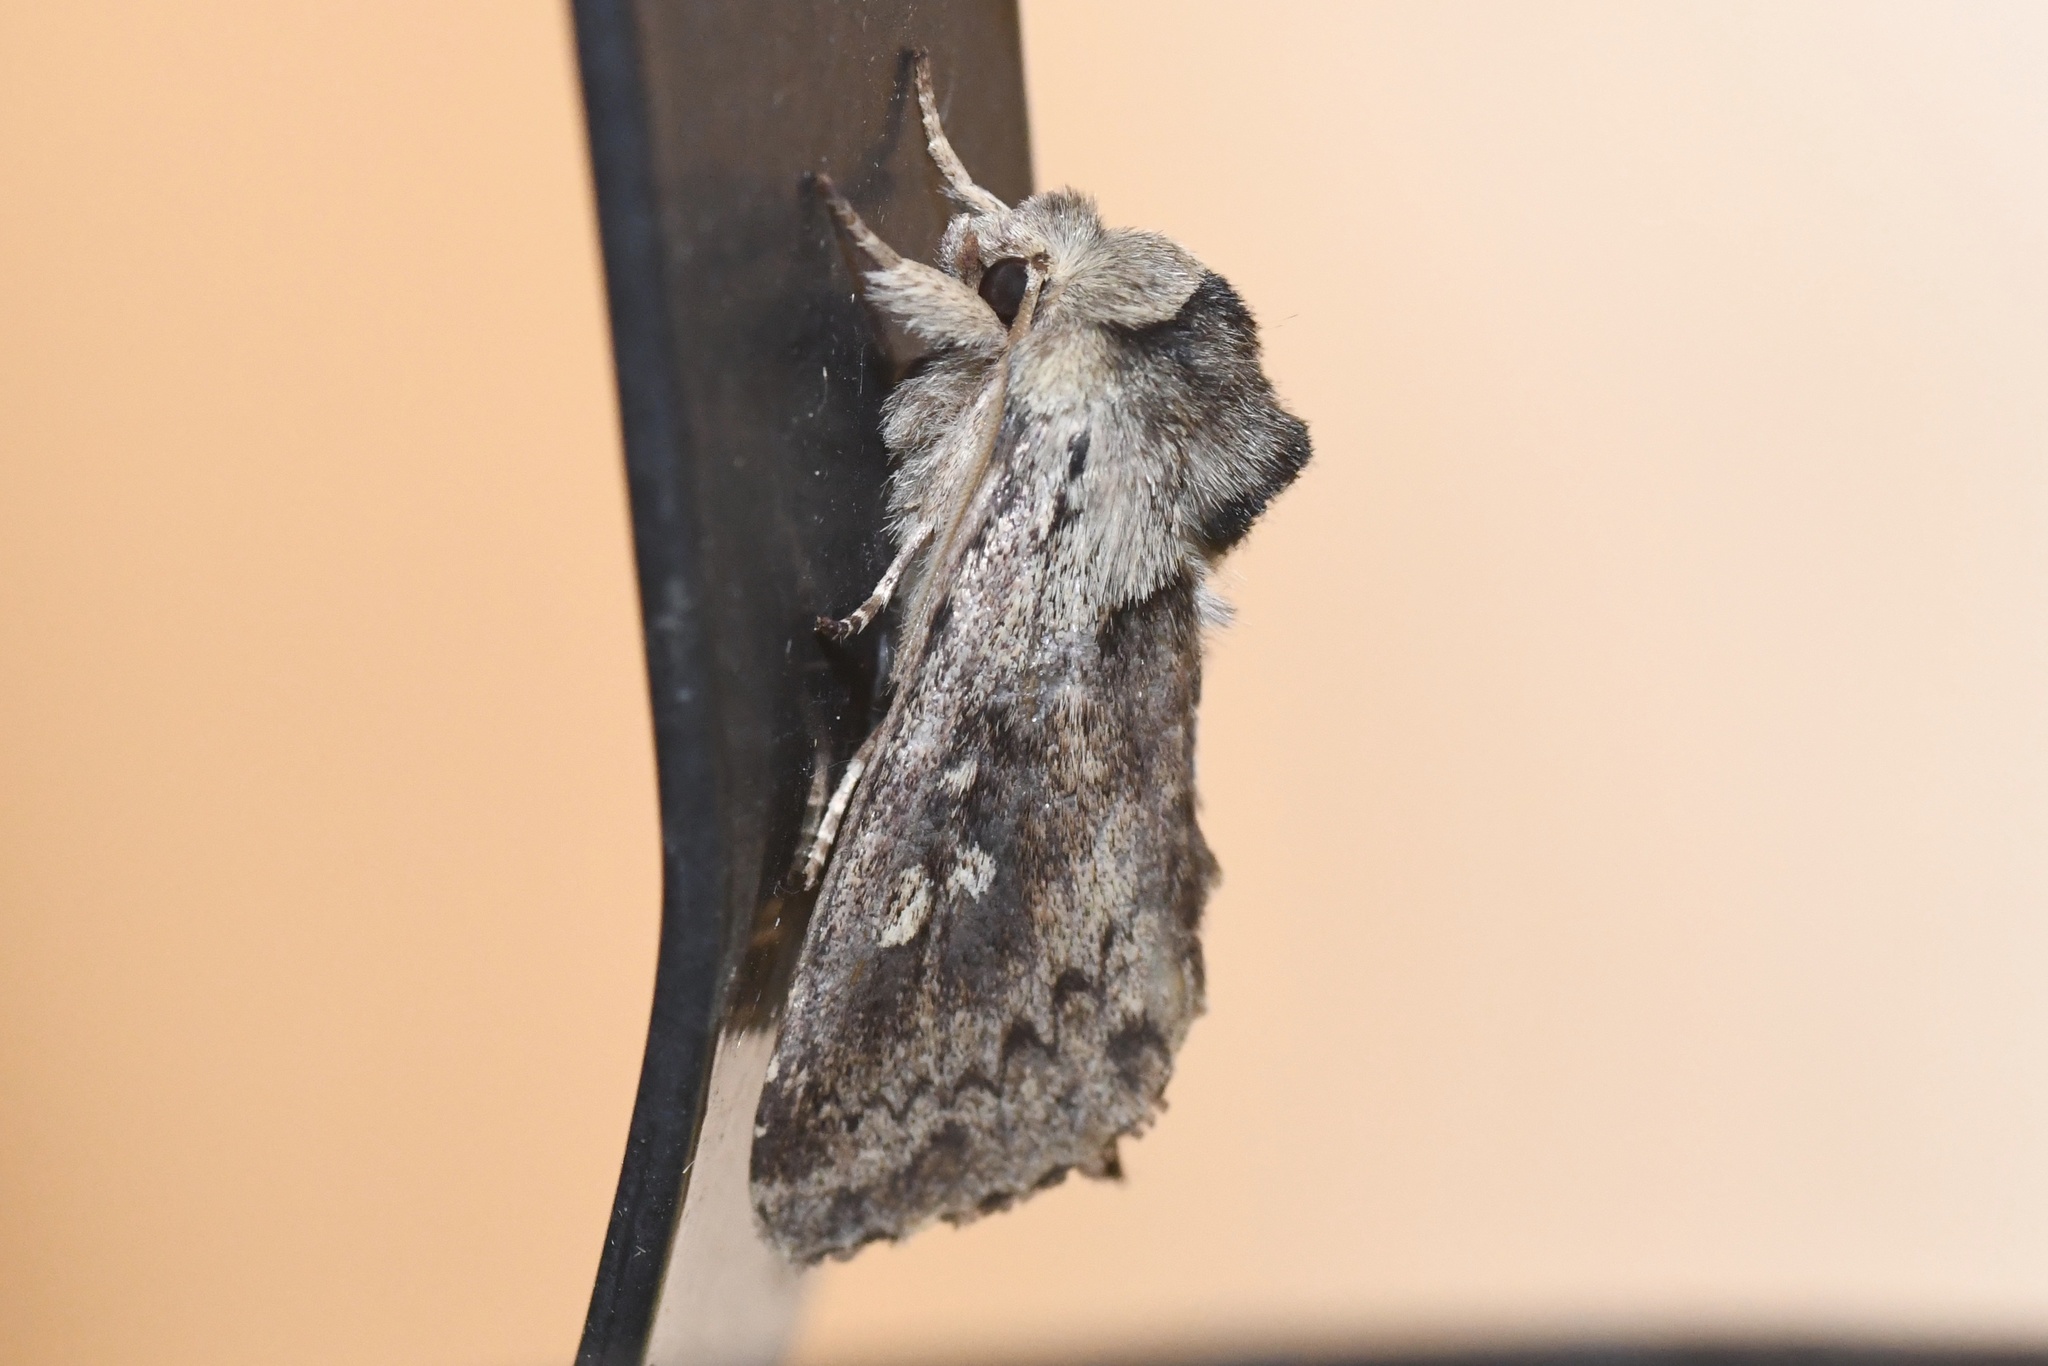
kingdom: Animalia
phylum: Arthropoda
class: Insecta
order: Lepidoptera
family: Noctuidae
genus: Bellura
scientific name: Bellura vulnifica
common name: Black-tailed diver moth
